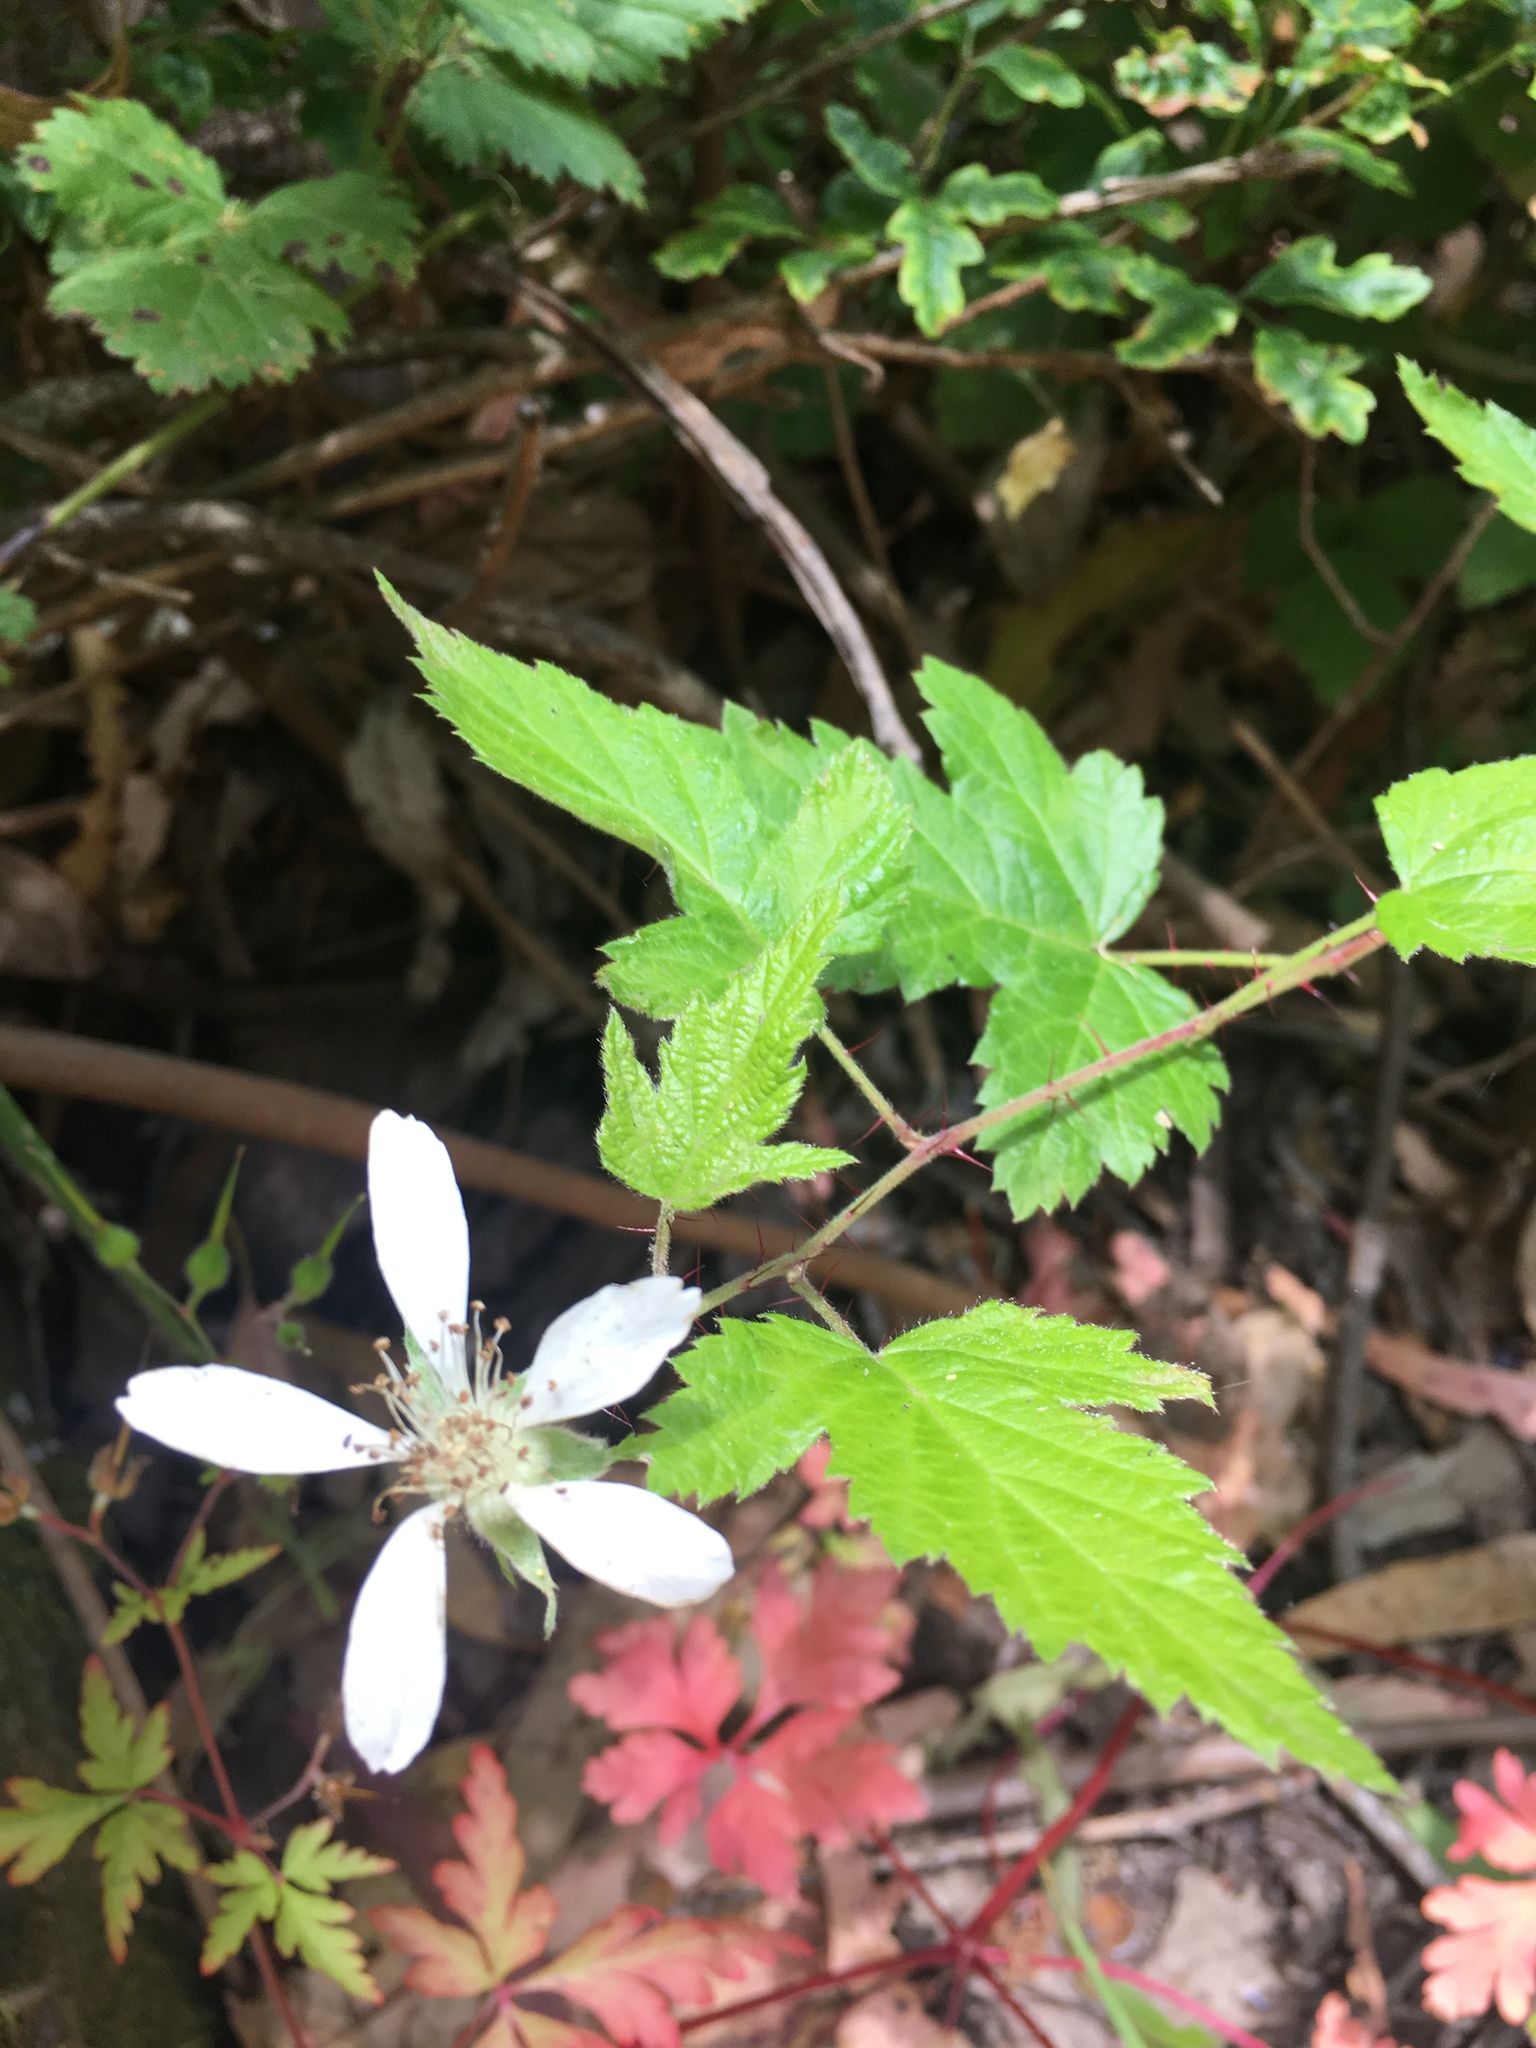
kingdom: Plantae
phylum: Tracheophyta
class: Magnoliopsida
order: Rosales
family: Rosaceae
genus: Rubus
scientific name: Rubus macropetalus
